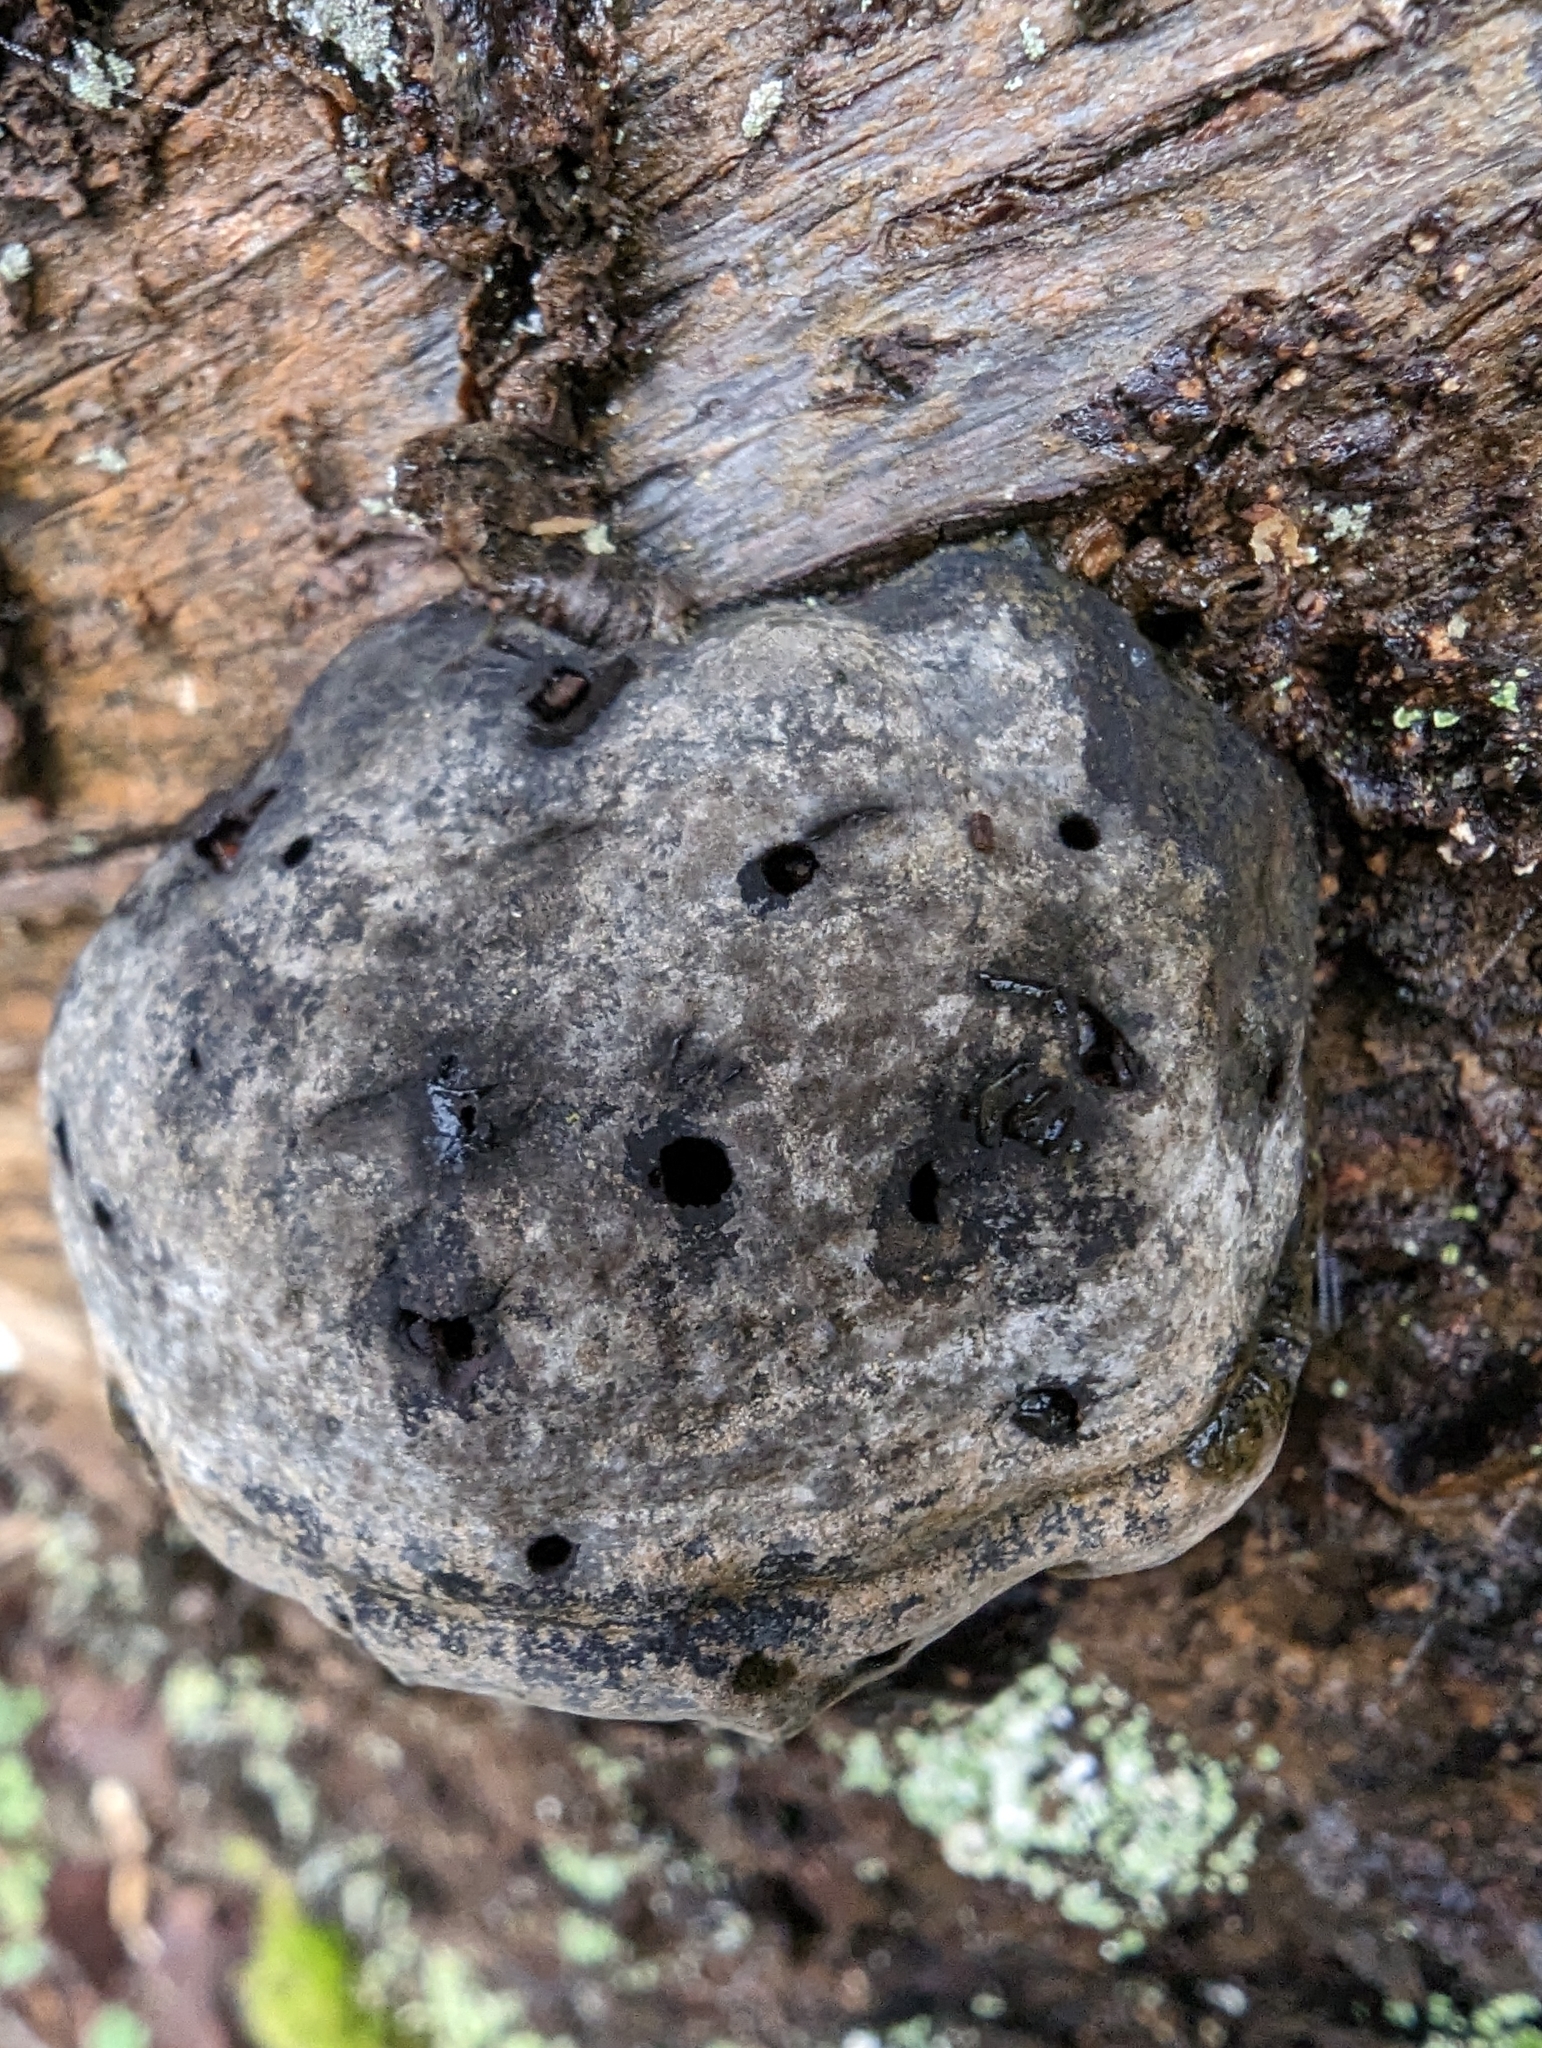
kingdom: Fungi
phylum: Basidiomycota
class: Agaricomycetes
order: Polyporales
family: Polyporaceae
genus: Fomes
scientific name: Fomes fomentarius
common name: Hoof fungus
